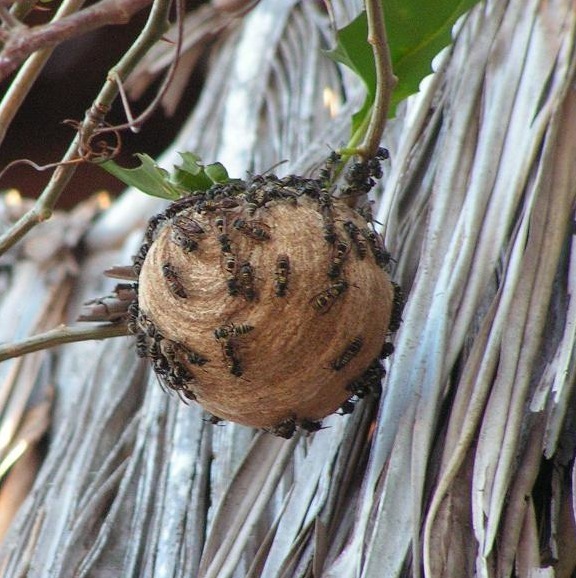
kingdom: Animalia
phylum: Arthropoda
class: Insecta
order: Hymenoptera
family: Vespidae
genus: Myrapetra
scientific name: Myrapetra
